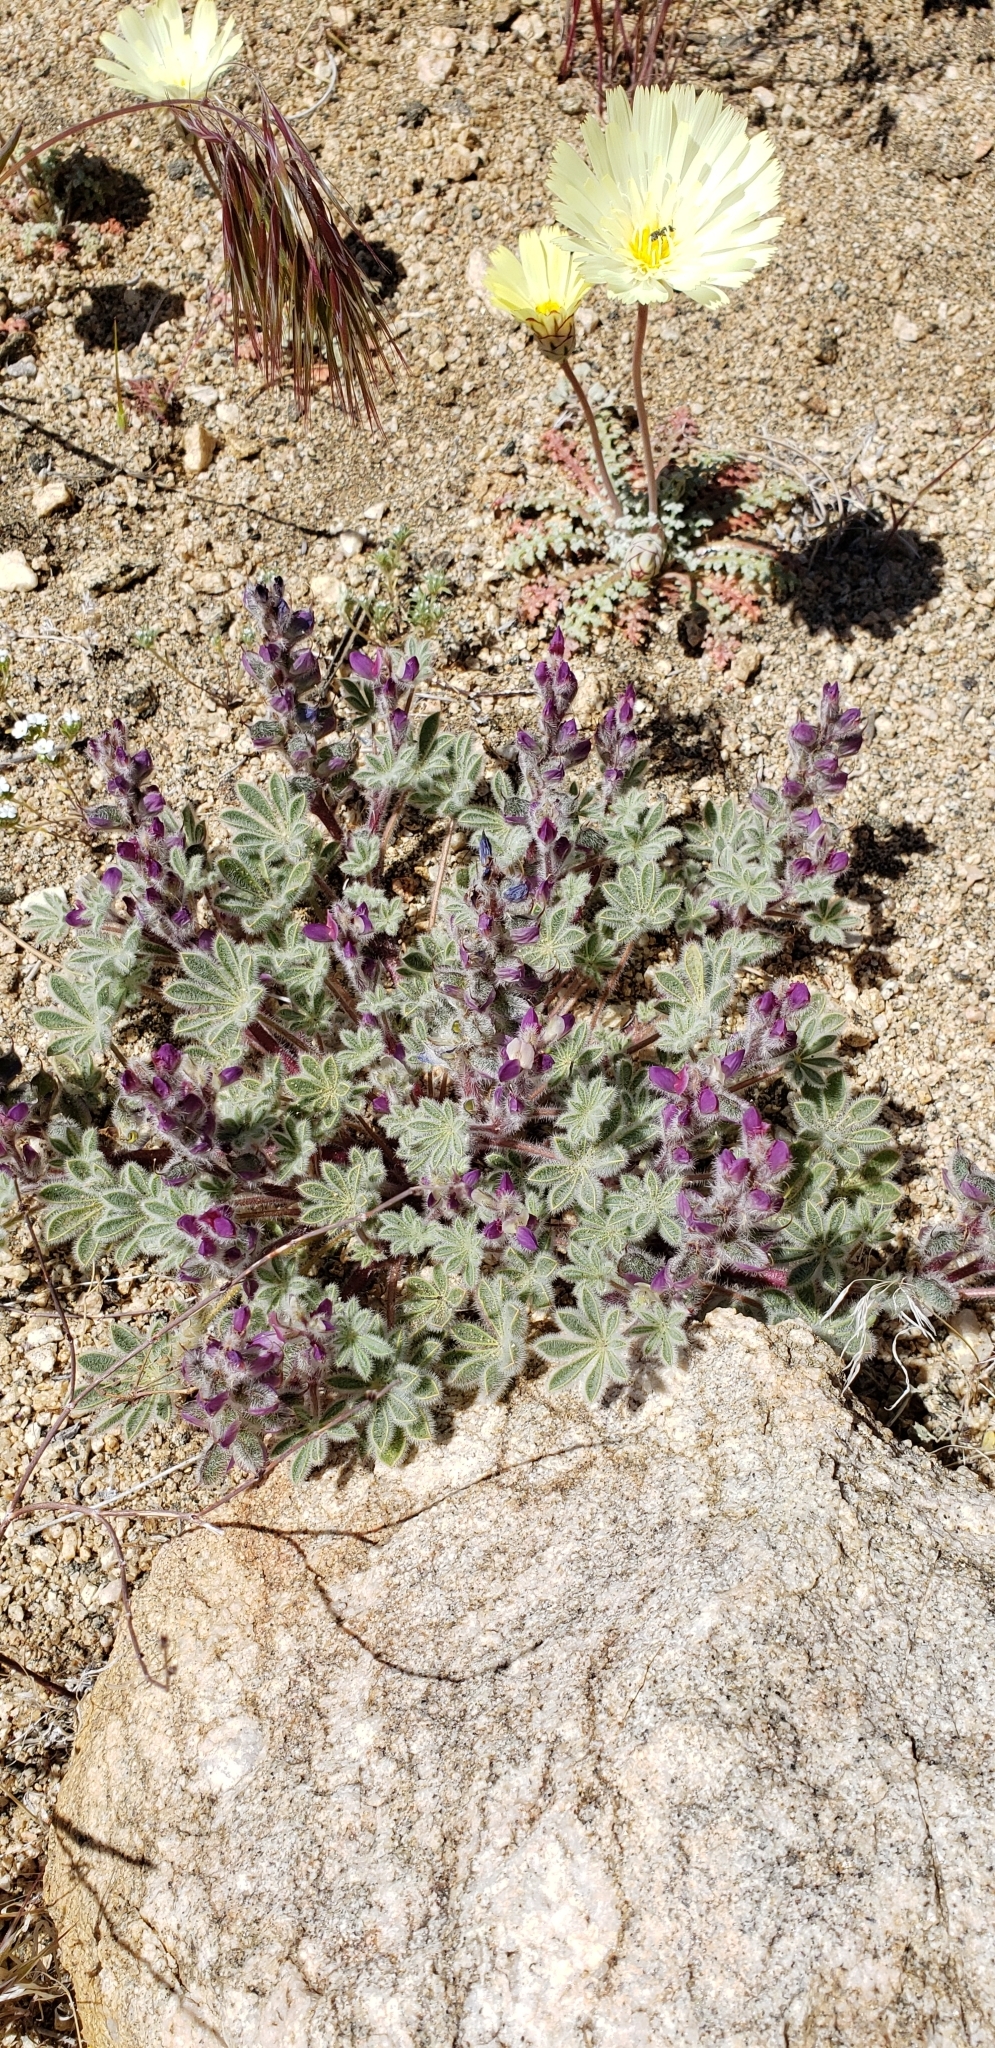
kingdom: Plantae
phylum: Tracheophyta
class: Magnoliopsida
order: Fabales
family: Fabaceae
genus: Lupinus
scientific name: Lupinus concinnus
